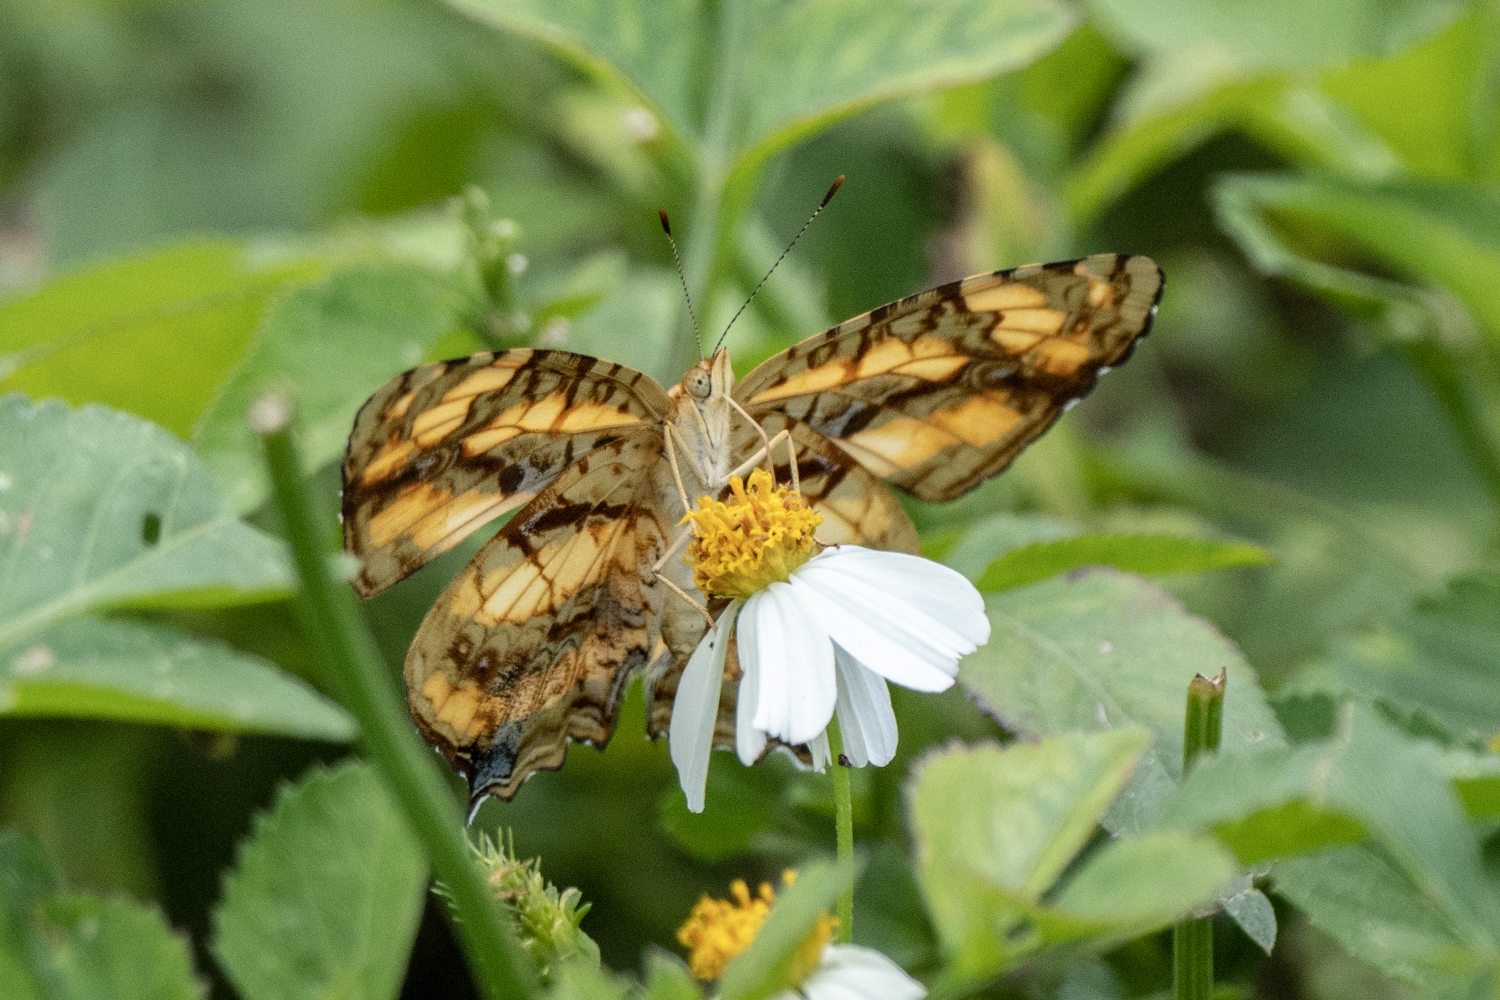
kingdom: Animalia
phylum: Arthropoda
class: Insecta
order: Lepidoptera
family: Nymphalidae
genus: Symbrenthia
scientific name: Symbrenthia hypselis
